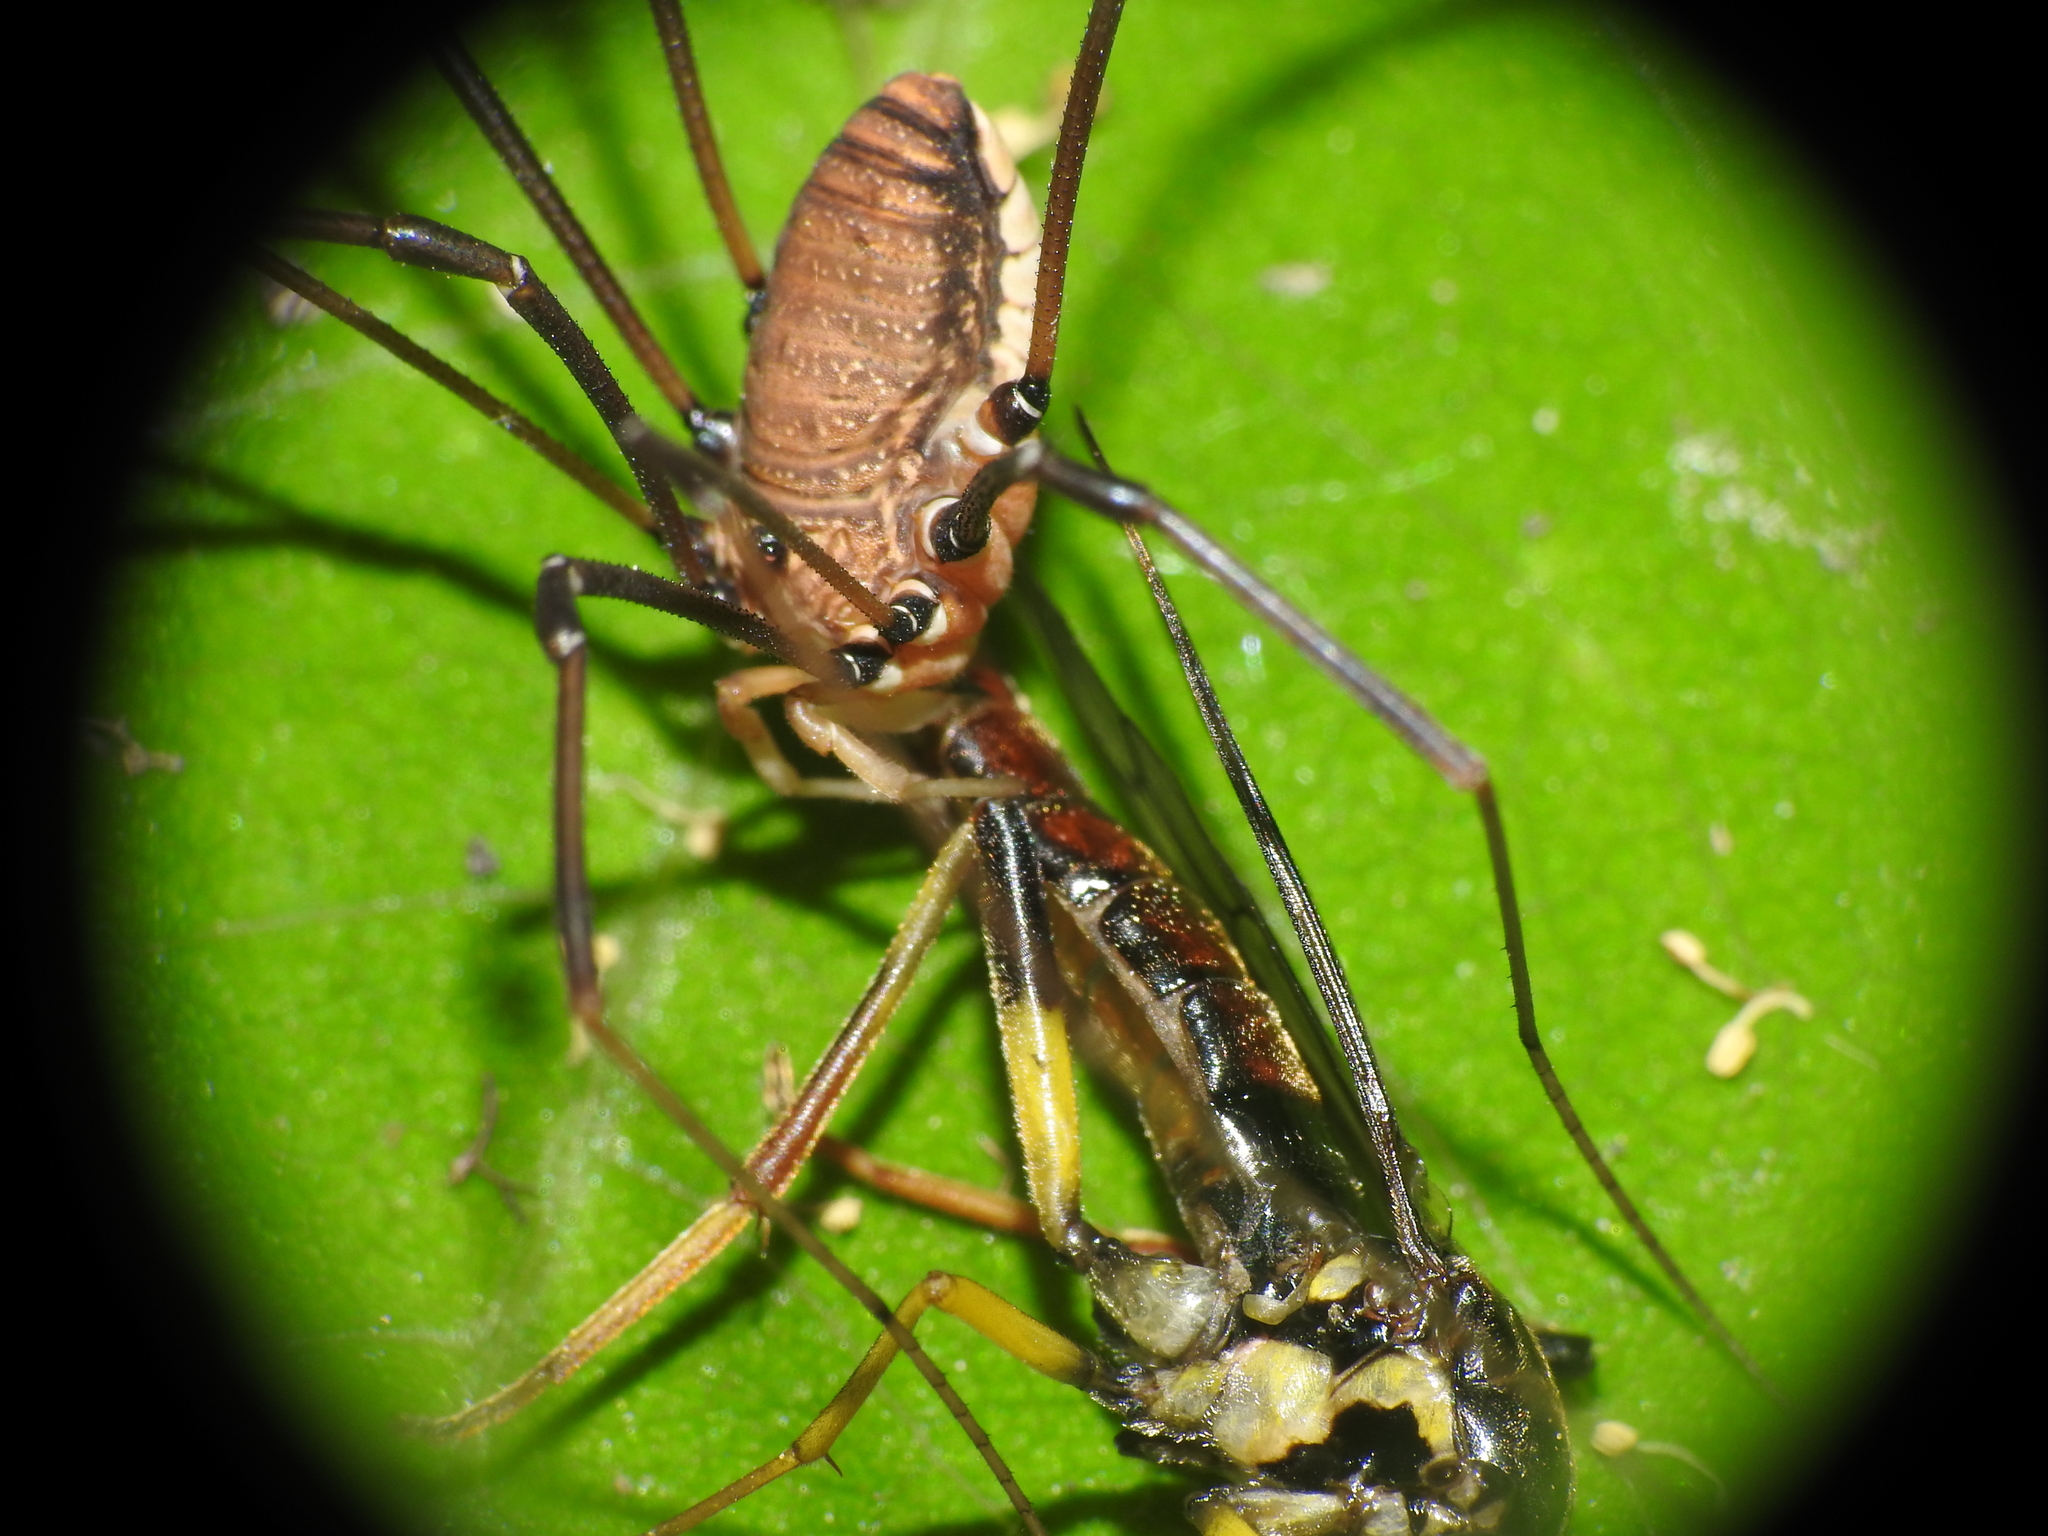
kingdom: Animalia
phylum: Arthropoda
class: Insecta
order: Diptera
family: Xylomyidae
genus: Xylomya
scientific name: Xylomya simillima
